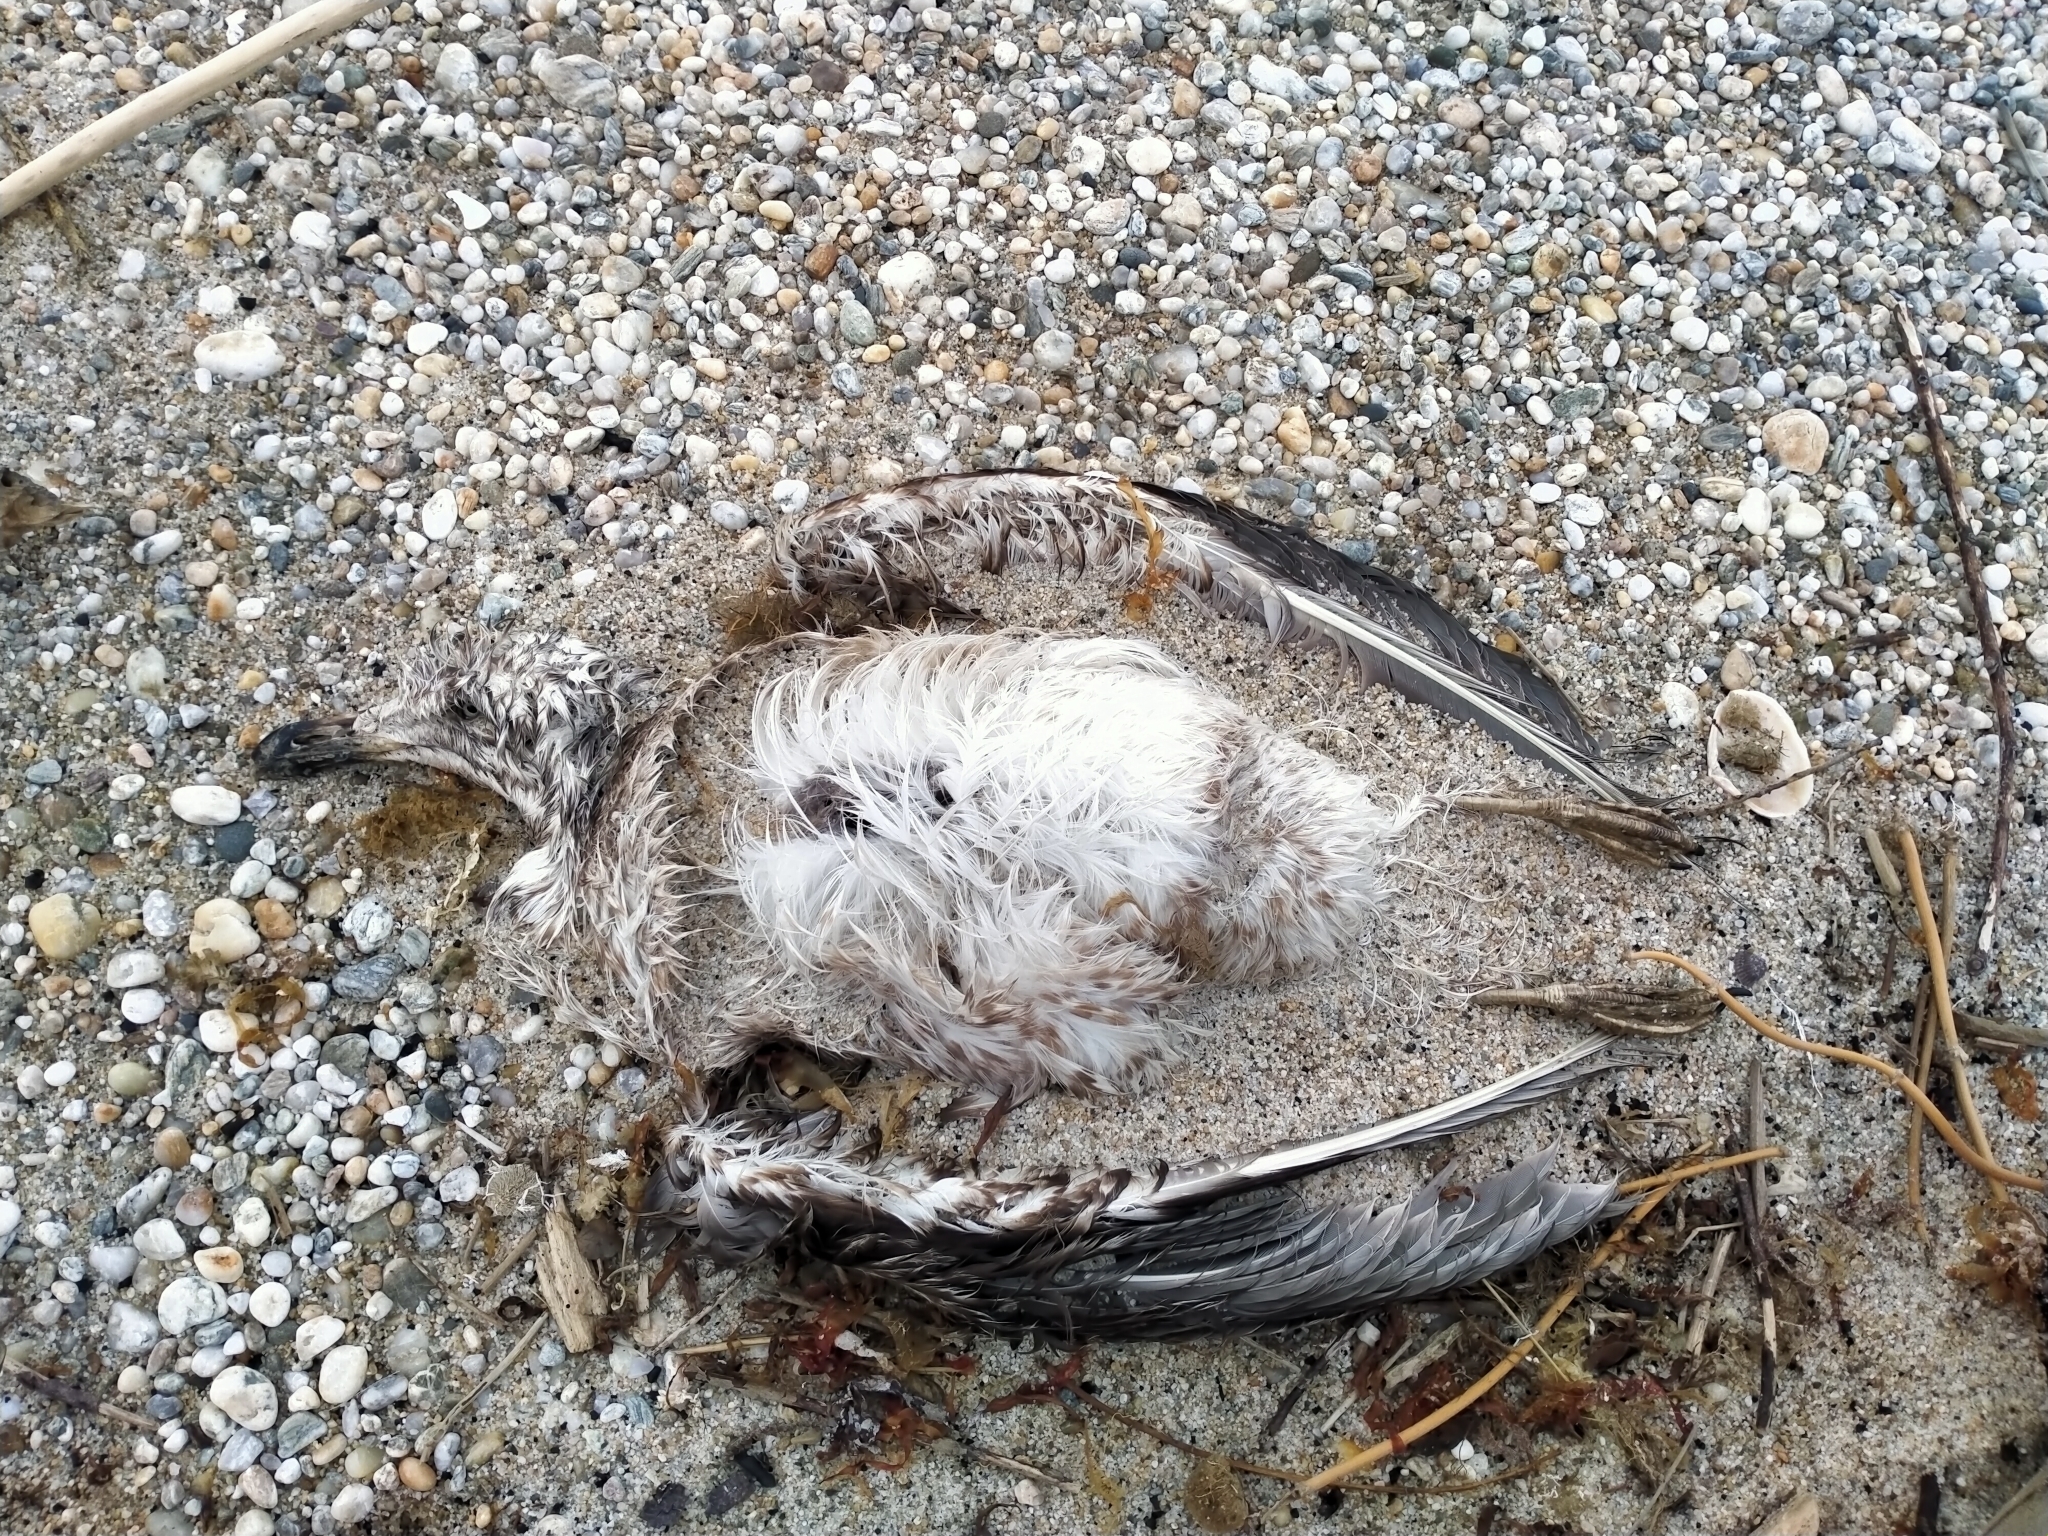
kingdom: Animalia
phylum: Chordata
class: Aves
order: Charadriiformes
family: Laridae
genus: Larus
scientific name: Larus dominicanus
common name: Kelp gull
